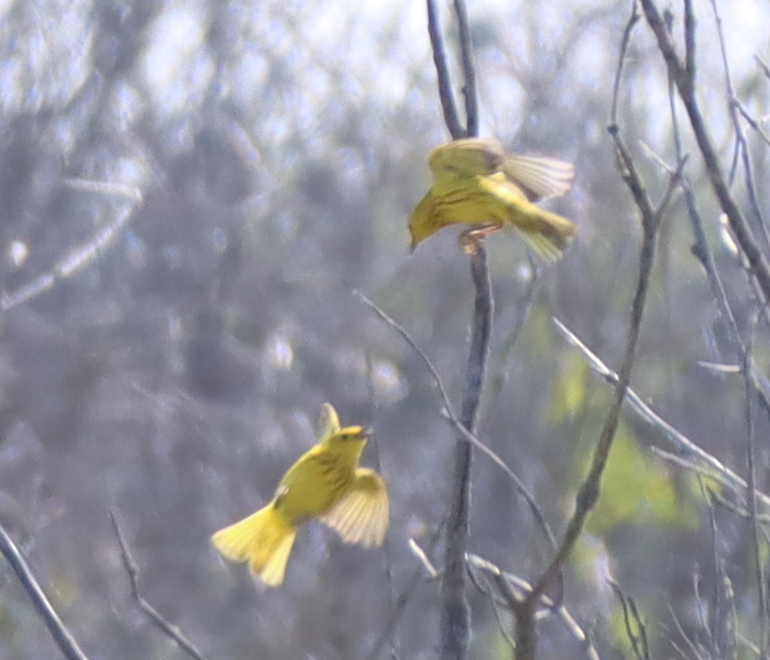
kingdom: Animalia
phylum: Chordata
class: Aves
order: Passeriformes
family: Parulidae
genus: Setophaga
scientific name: Setophaga petechia
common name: Yellow warbler
